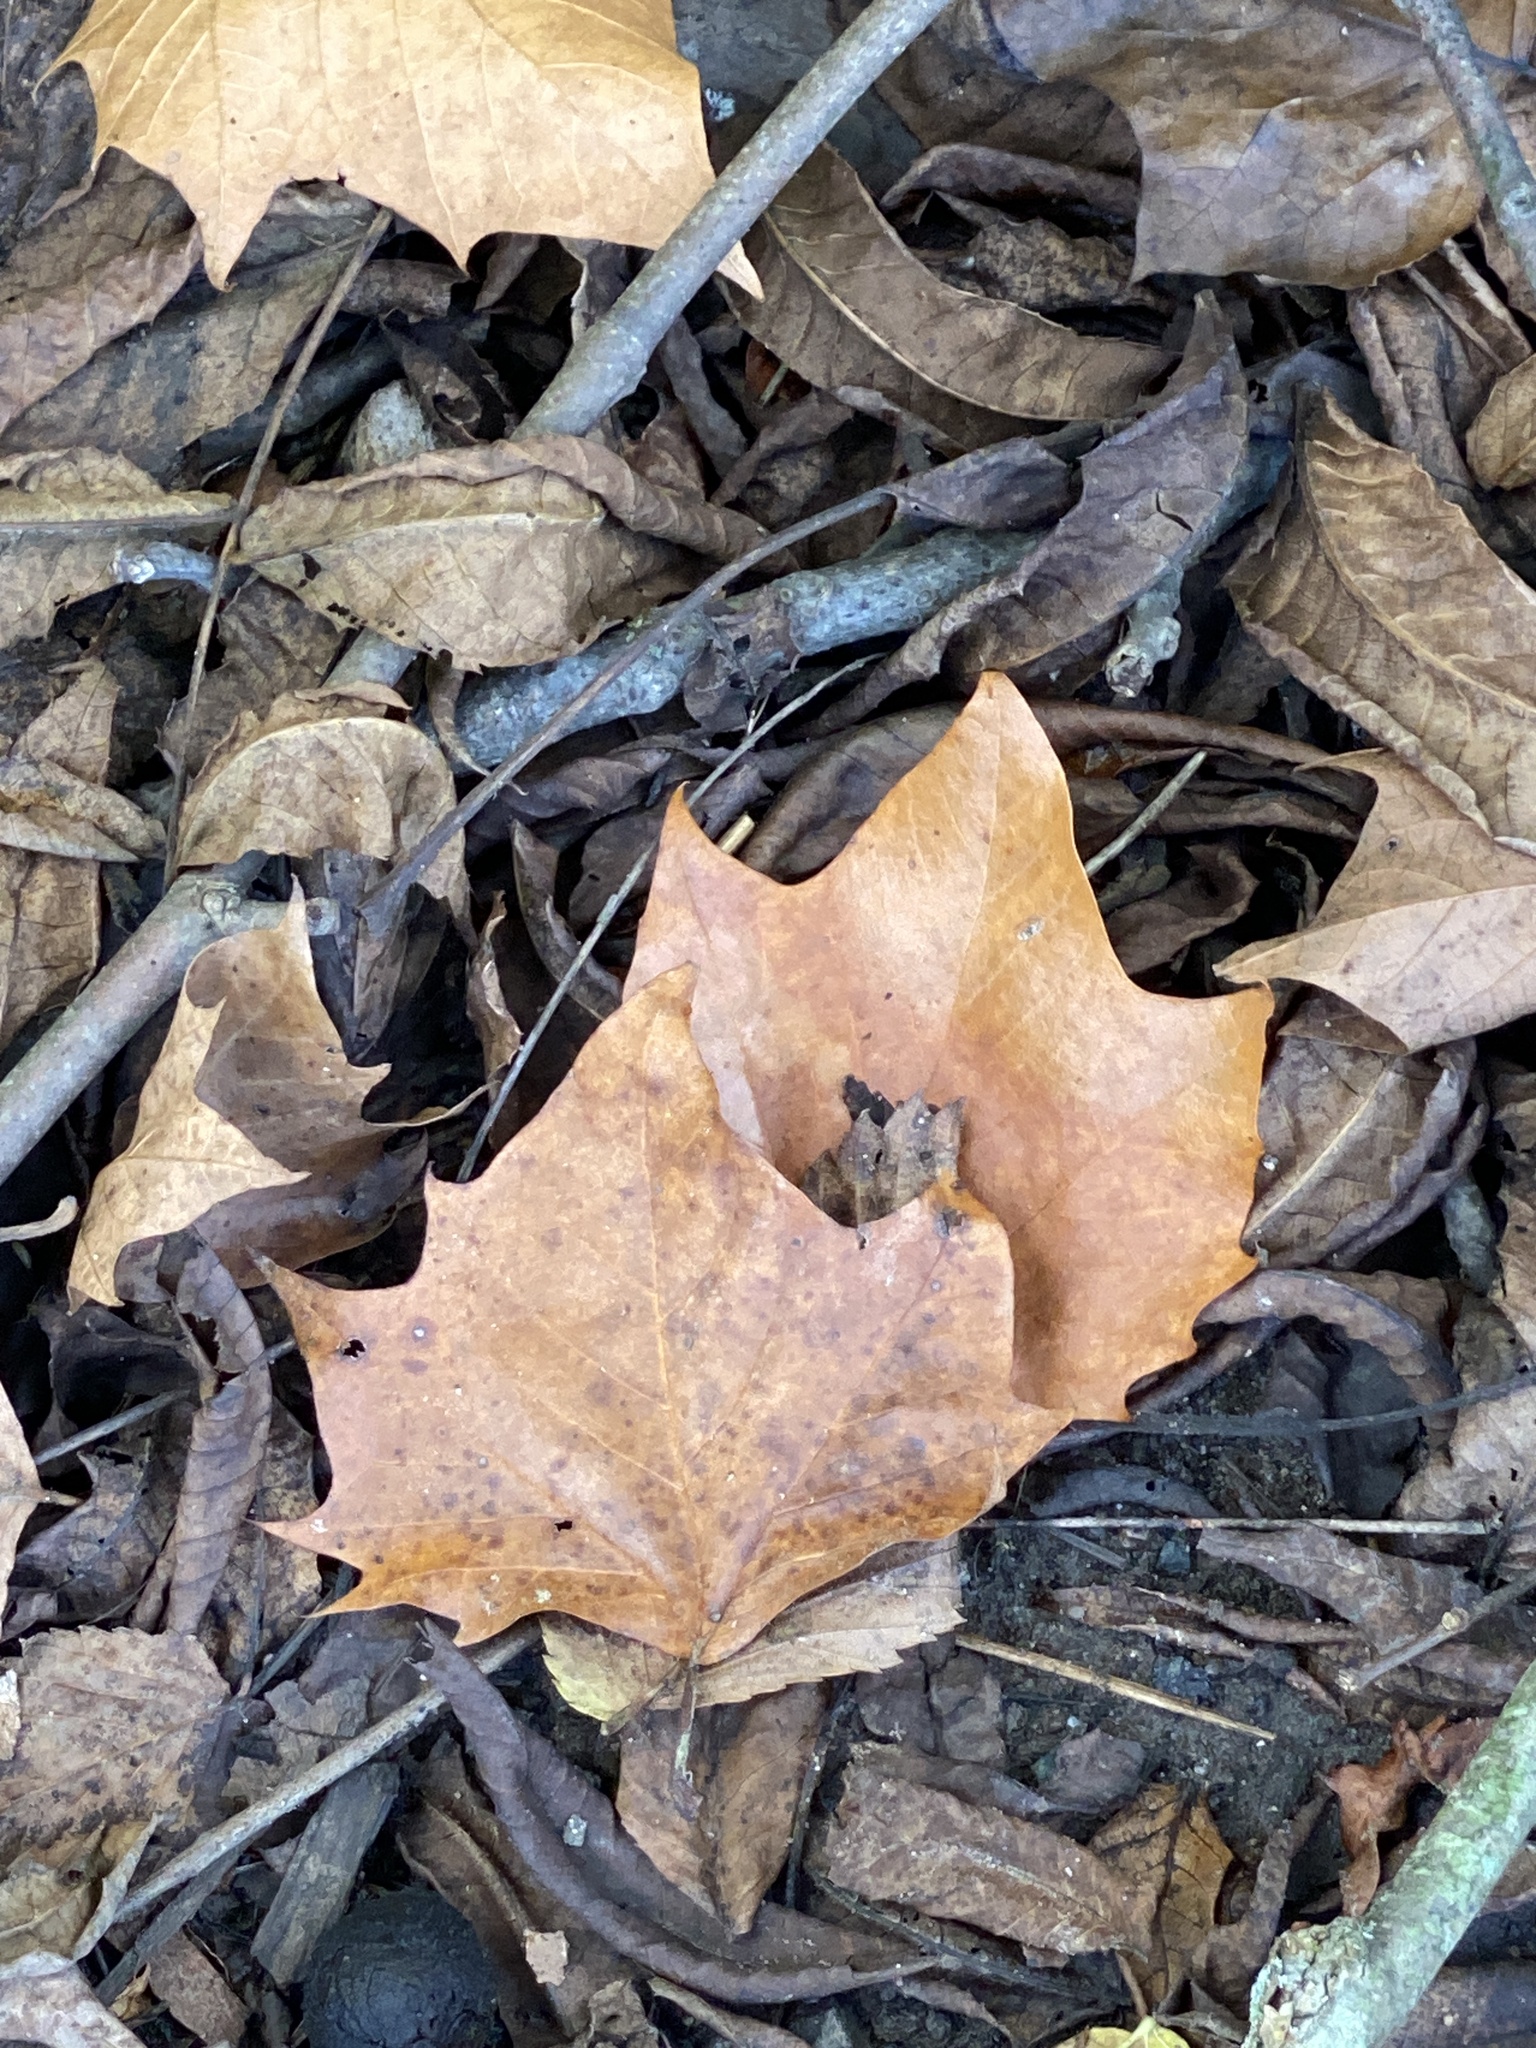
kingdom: Plantae
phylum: Tracheophyta
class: Magnoliopsida
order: Proteales
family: Platanaceae
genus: Platanus
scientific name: Platanus occidentalis
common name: American sycamore
